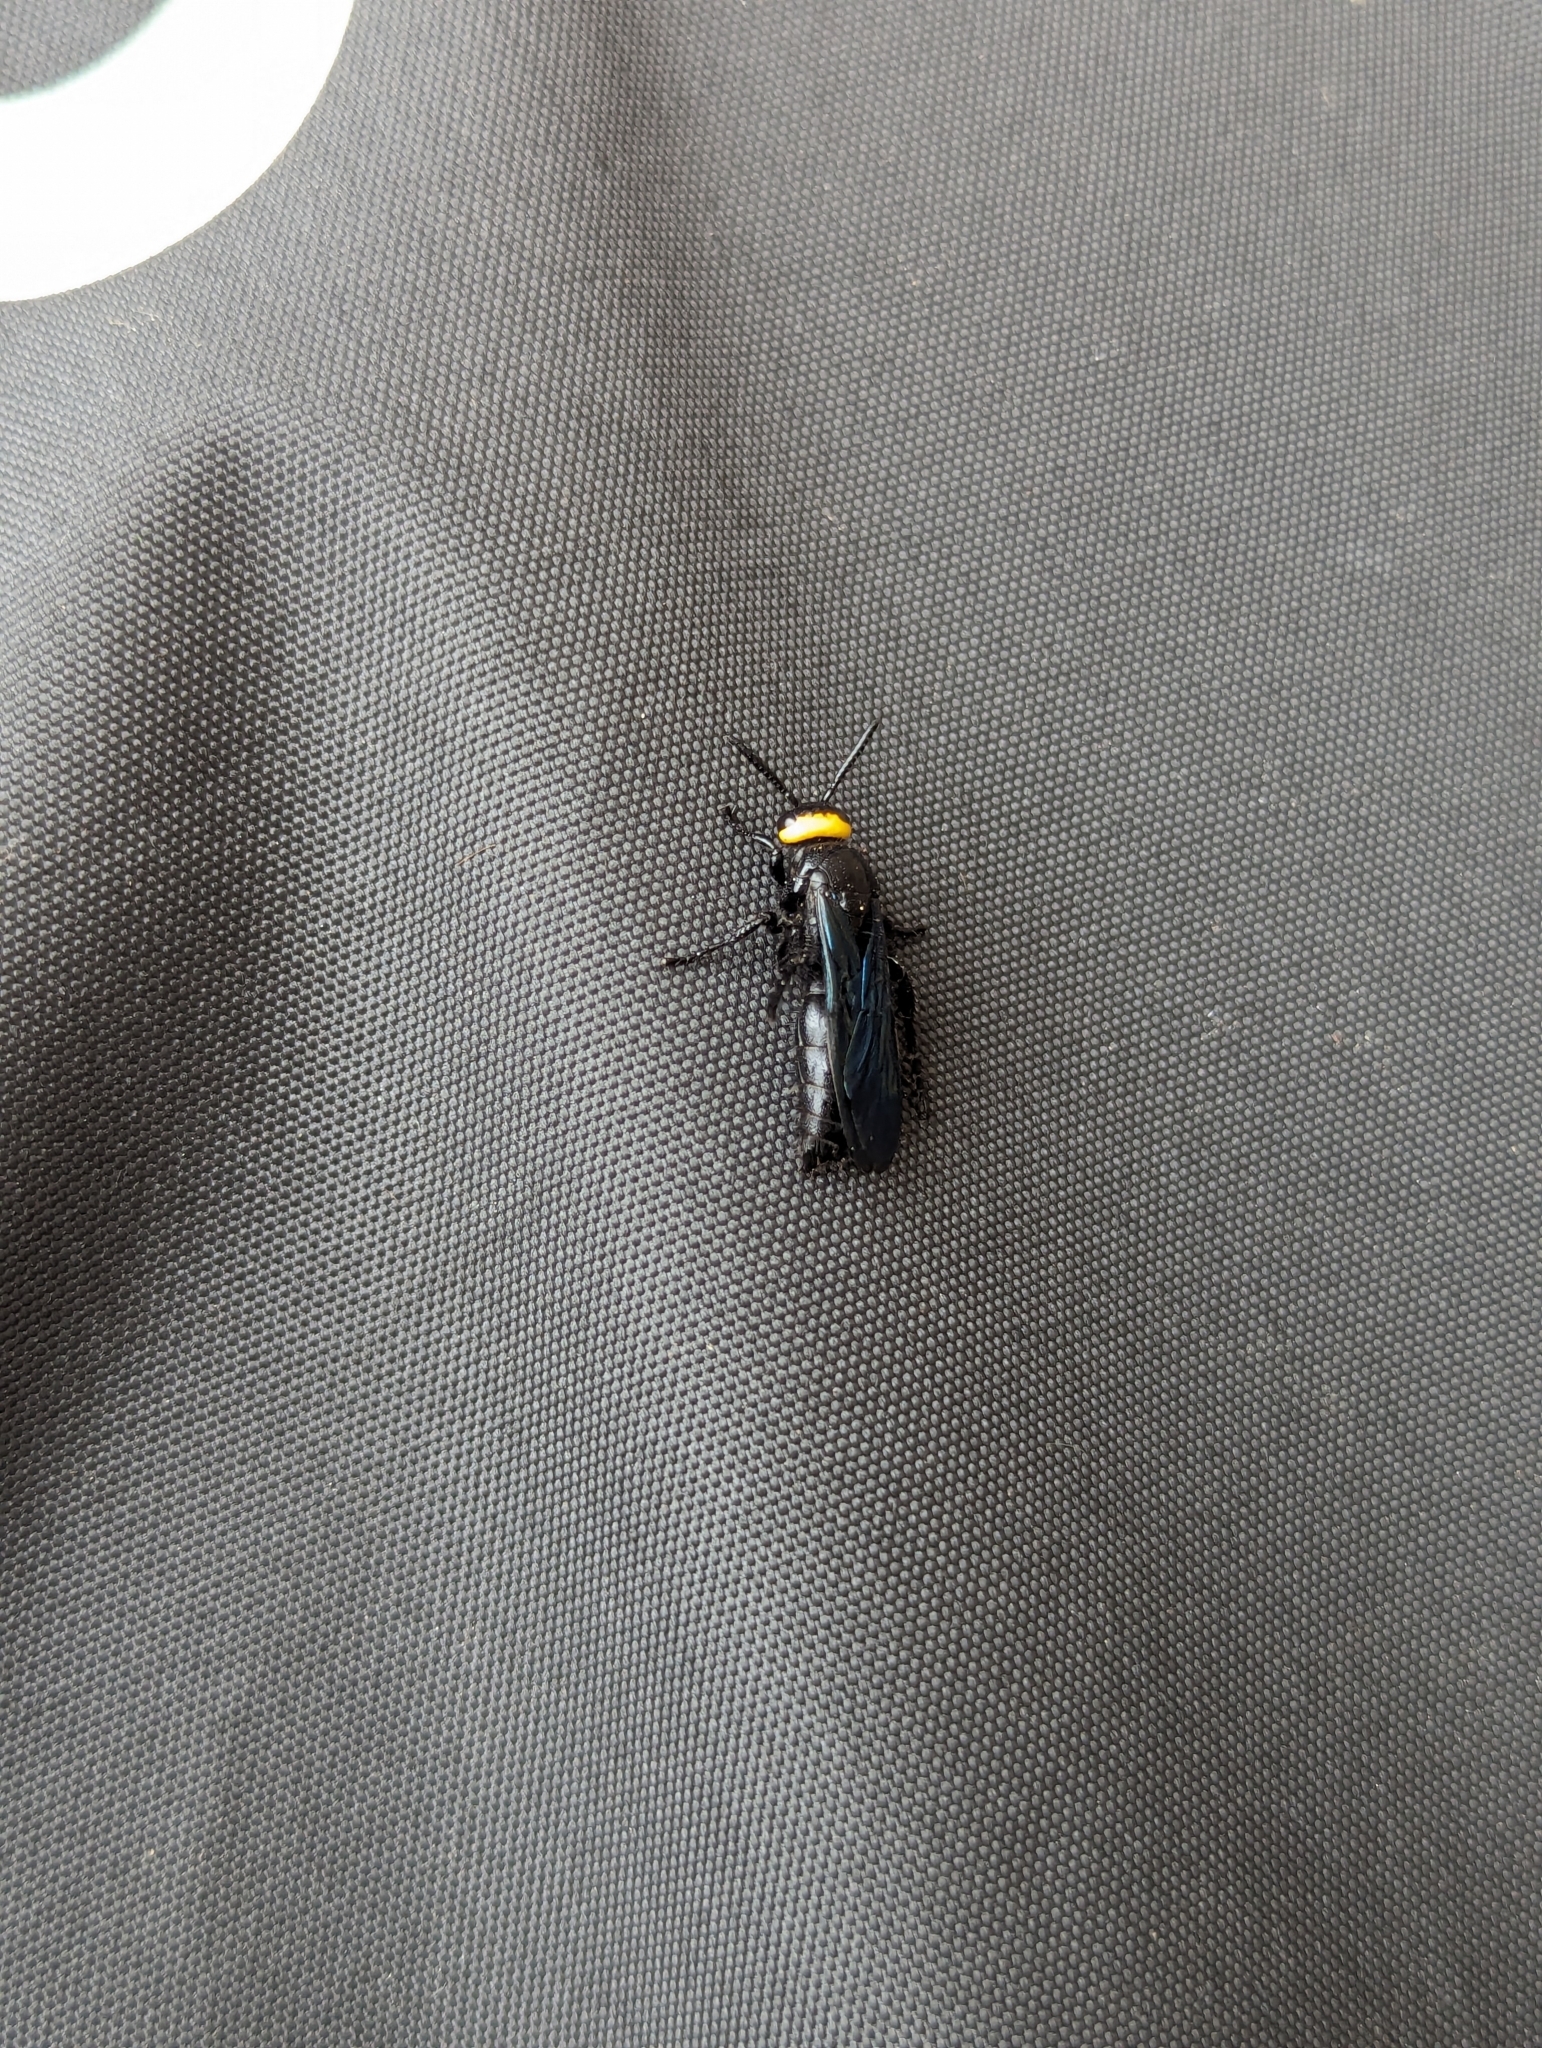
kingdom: Animalia
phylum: Arthropoda
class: Insecta
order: Hymenoptera
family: Scoliidae
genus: Scolia
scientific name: Scolia verticalis
